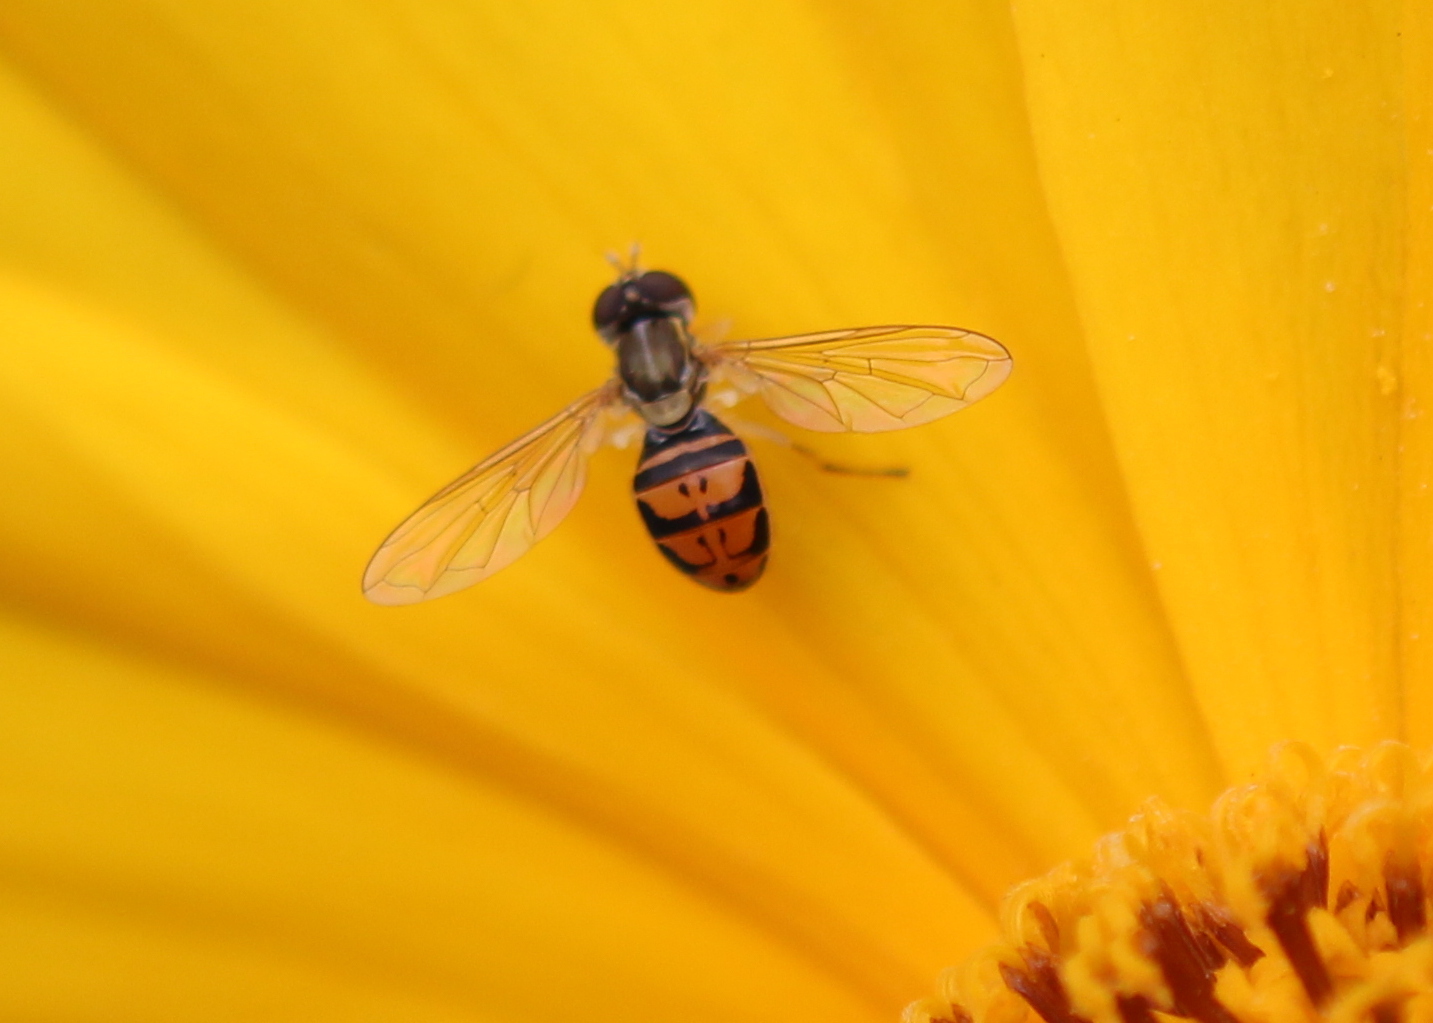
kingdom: Animalia
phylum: Arthropoda
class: Insecta
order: Diptera
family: Syrphidae
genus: Toxomerus
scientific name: Toxomerus marginatus
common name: Syrphid fly
